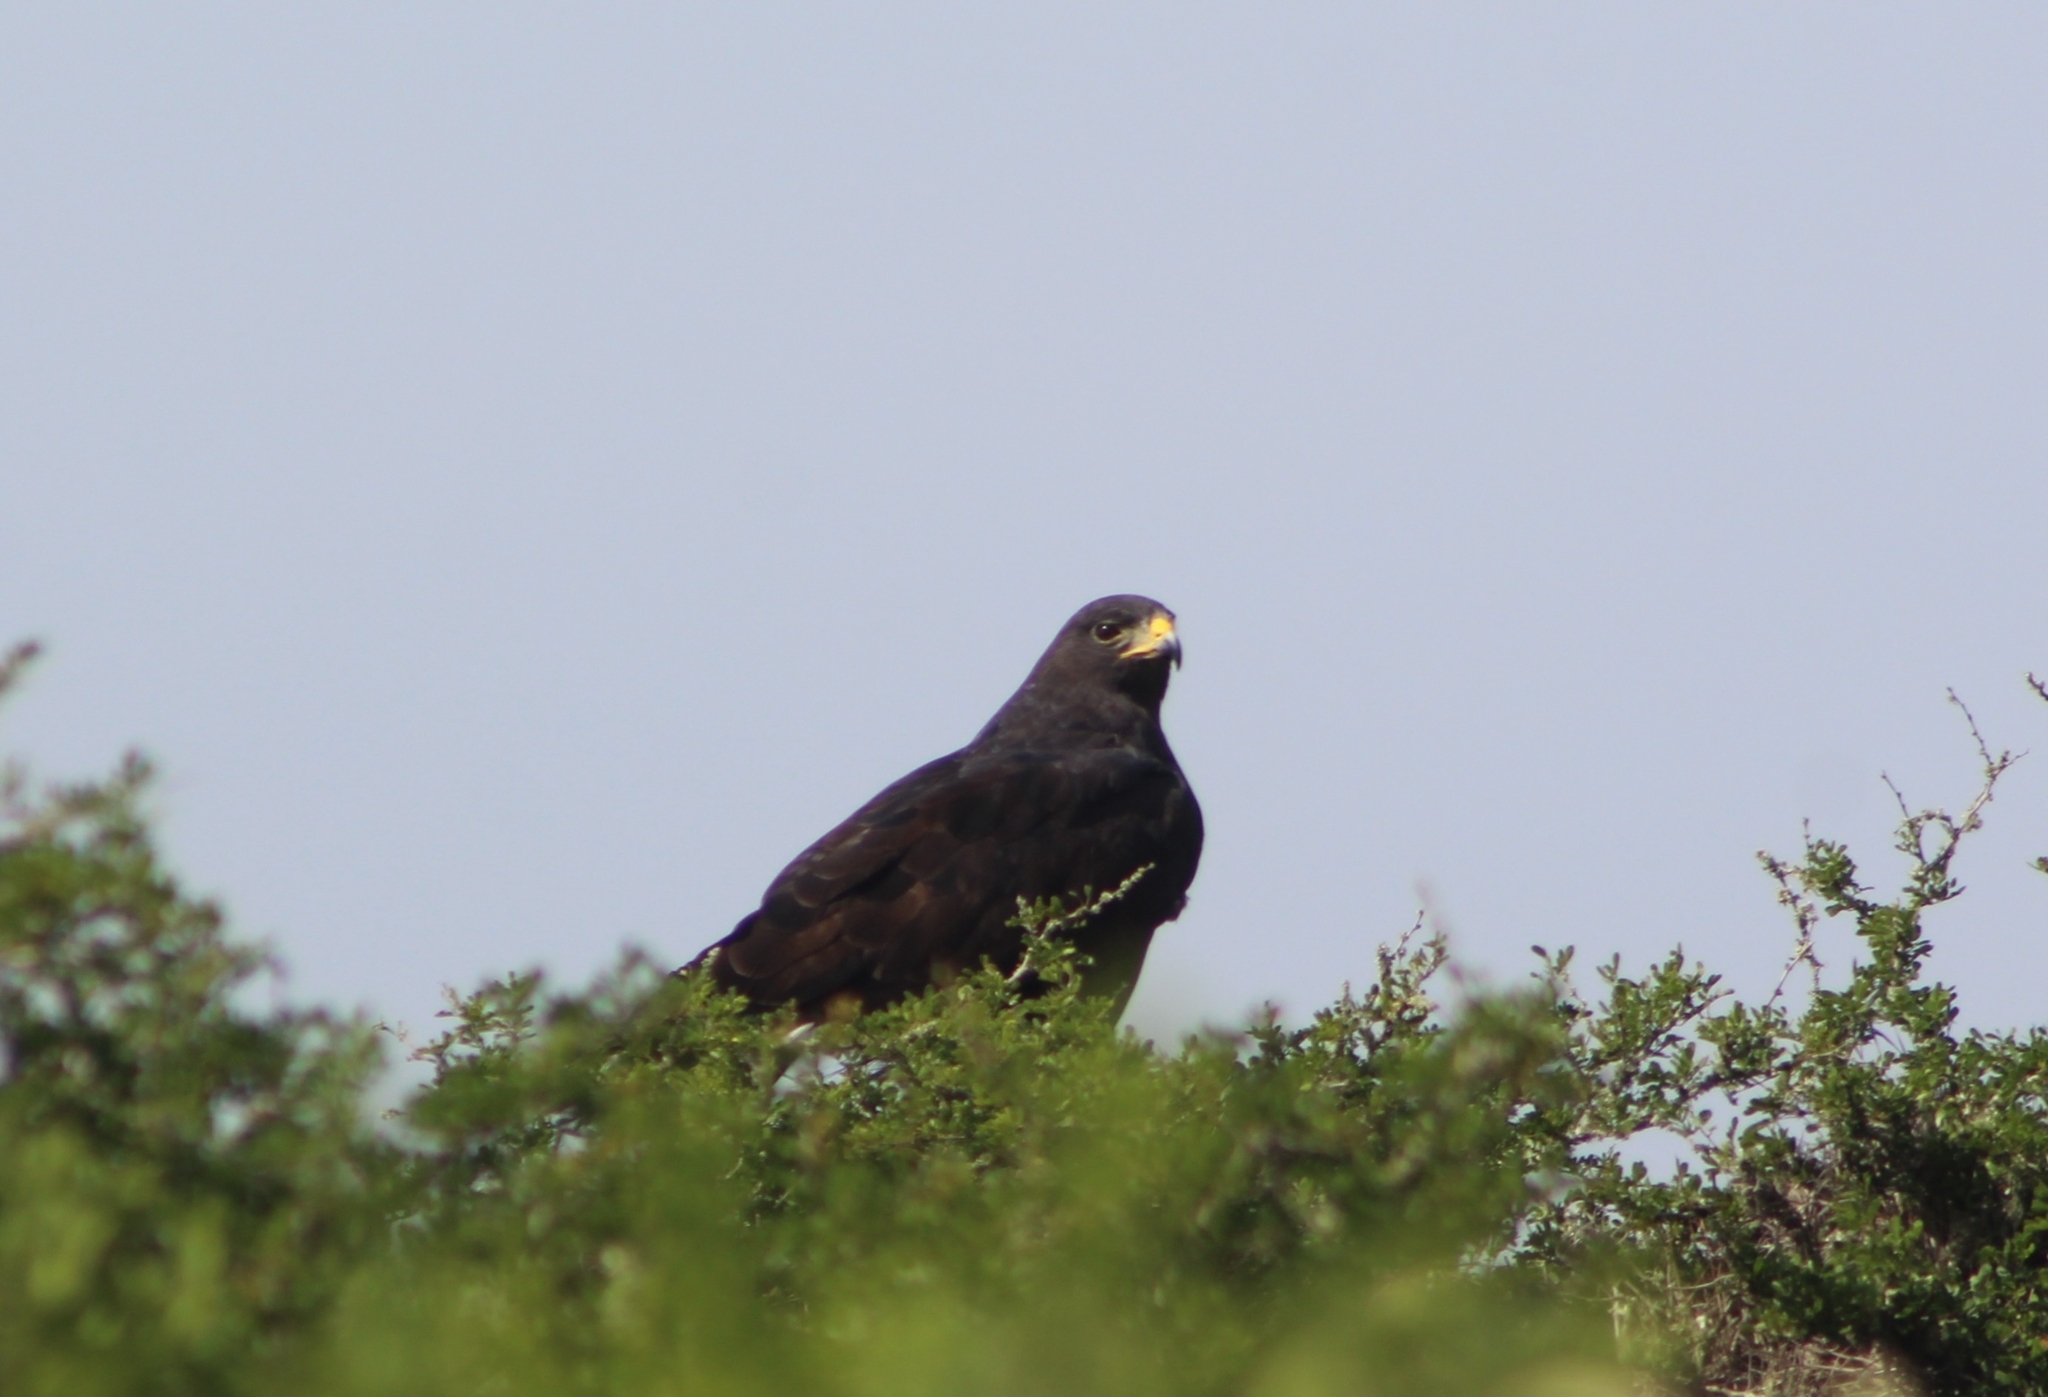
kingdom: Animalia
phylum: Chordata
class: Aves
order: Accipitriformes
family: Accipitridae
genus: Buteo
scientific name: Buteo albonotatus
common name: Zone-tailed hawk
